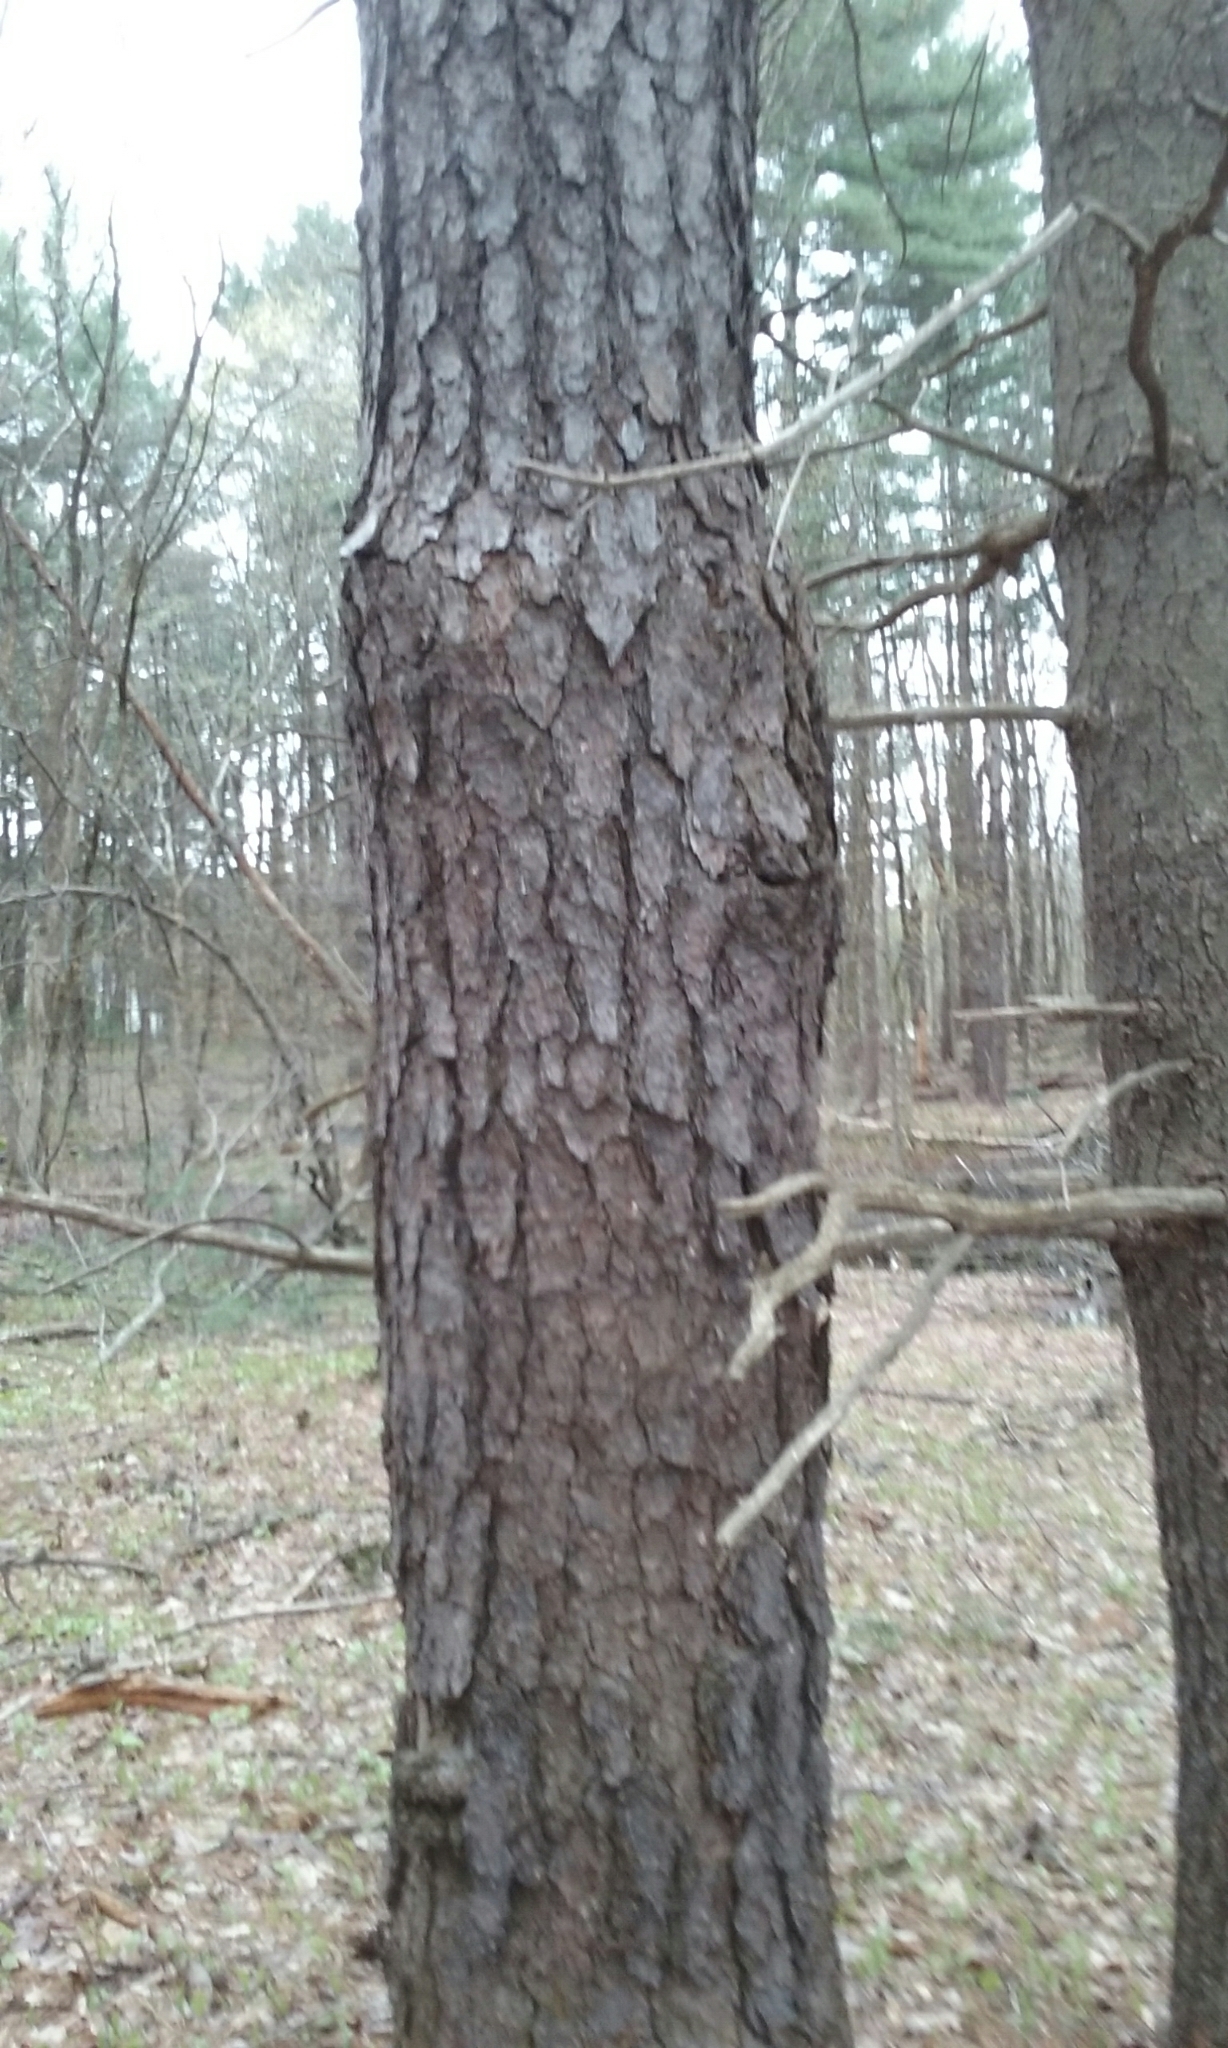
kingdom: Plantae
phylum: Tracheophyta
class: Pinopsida
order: Pinales
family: Pinaceae
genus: Pinus
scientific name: Pinus rigida
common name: Pitch pine
